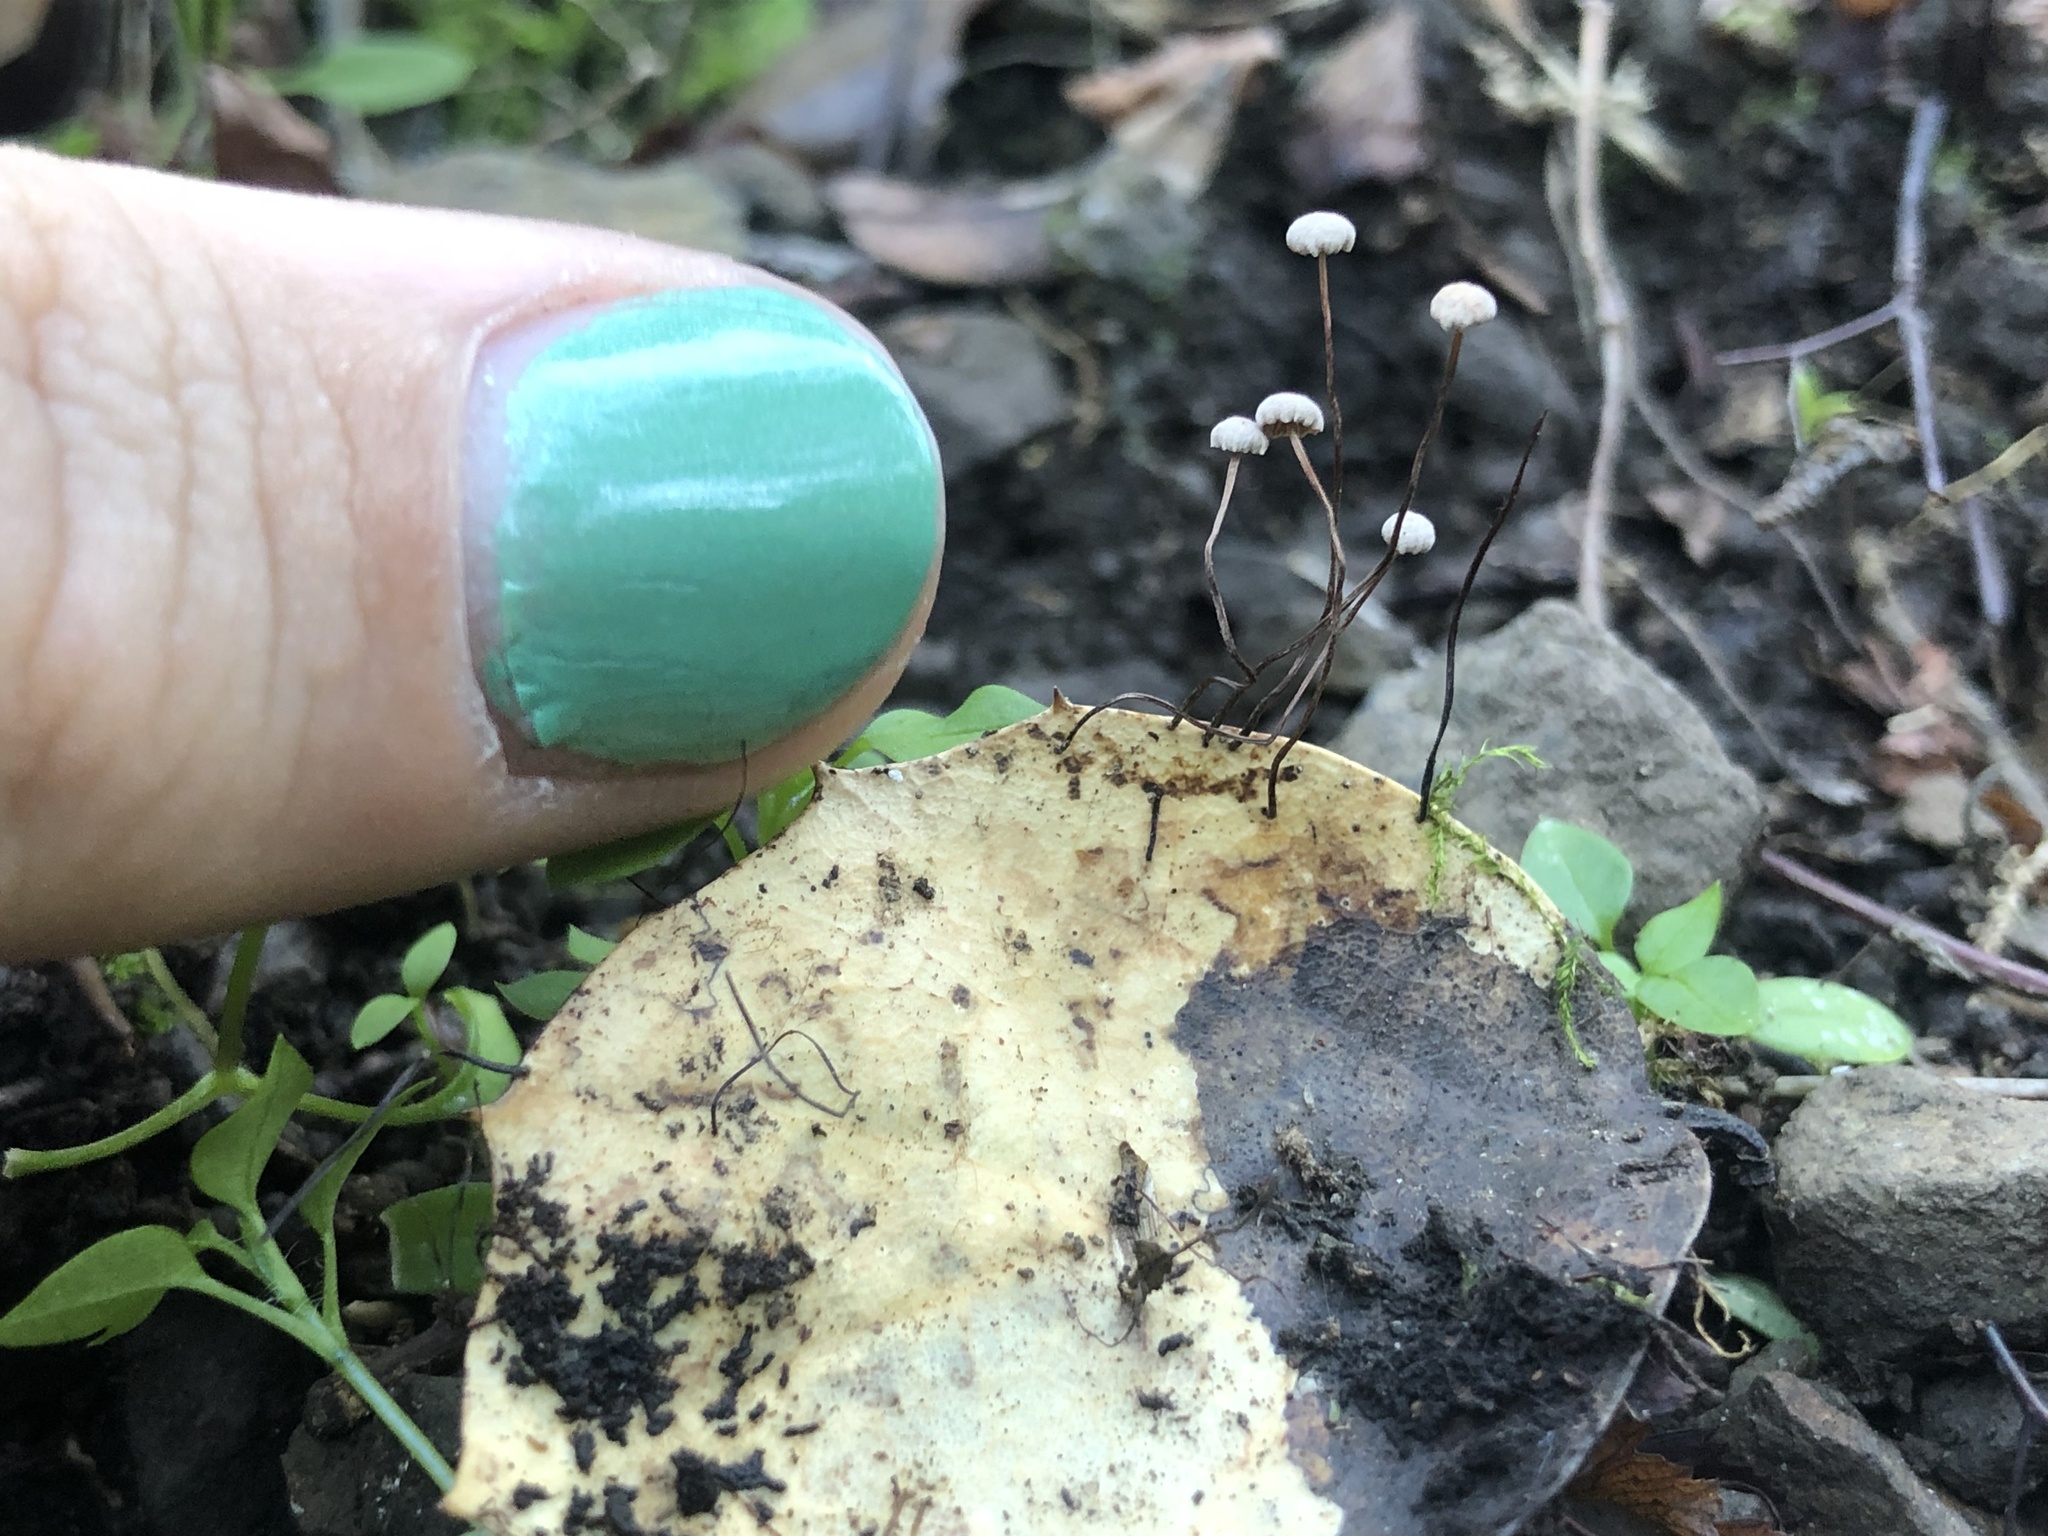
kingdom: Fungi
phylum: Basidiomycota
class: Agaricomycetes
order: Agaricales
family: Omphalotaceae
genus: Collybiopsis
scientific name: Collybiopsis quercophila
